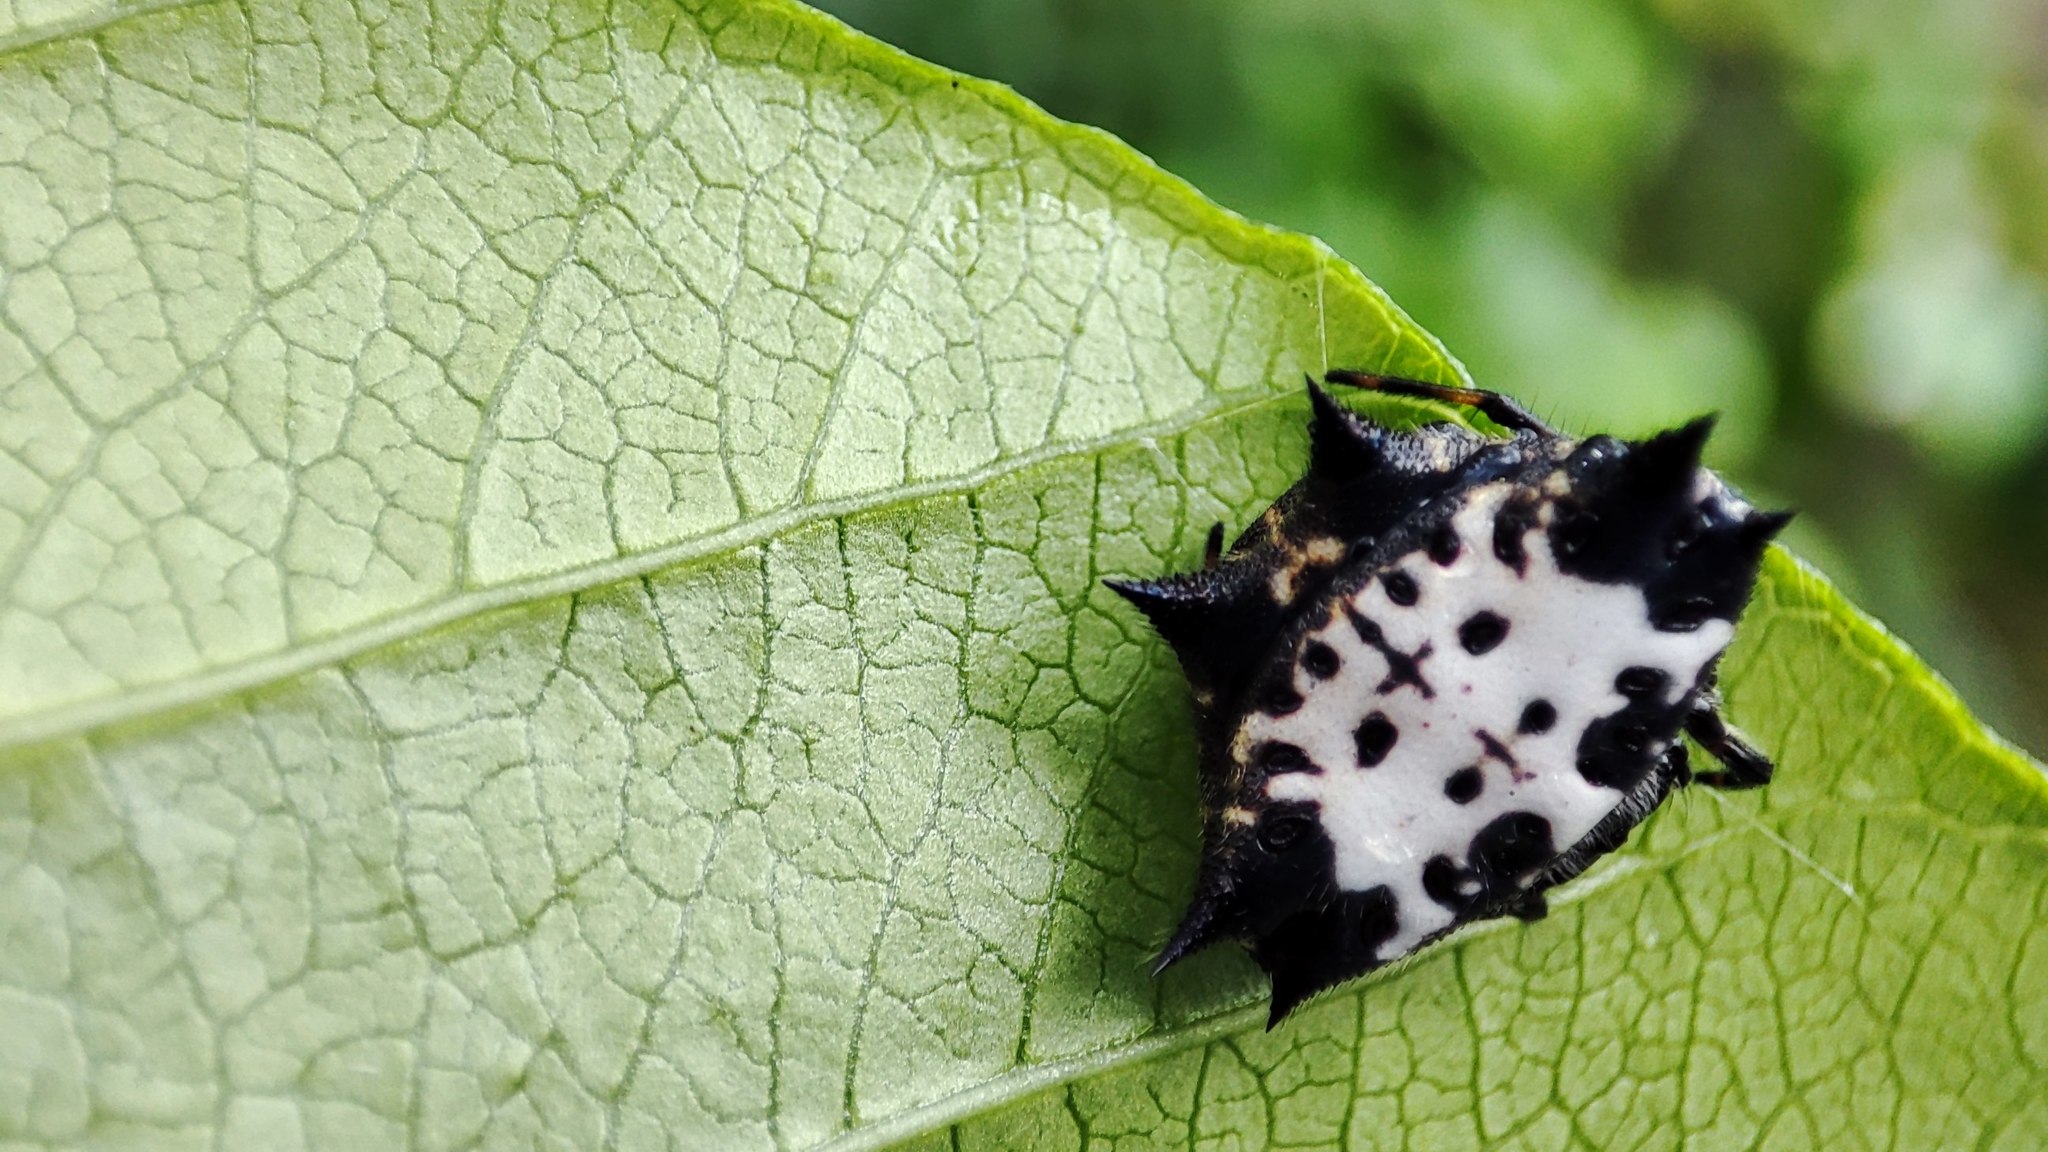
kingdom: Animalia
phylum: Arthropoda
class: Arachnida
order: Araneae
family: Araneidae
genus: Gasteracantha
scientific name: Gasteracantha kuhli
